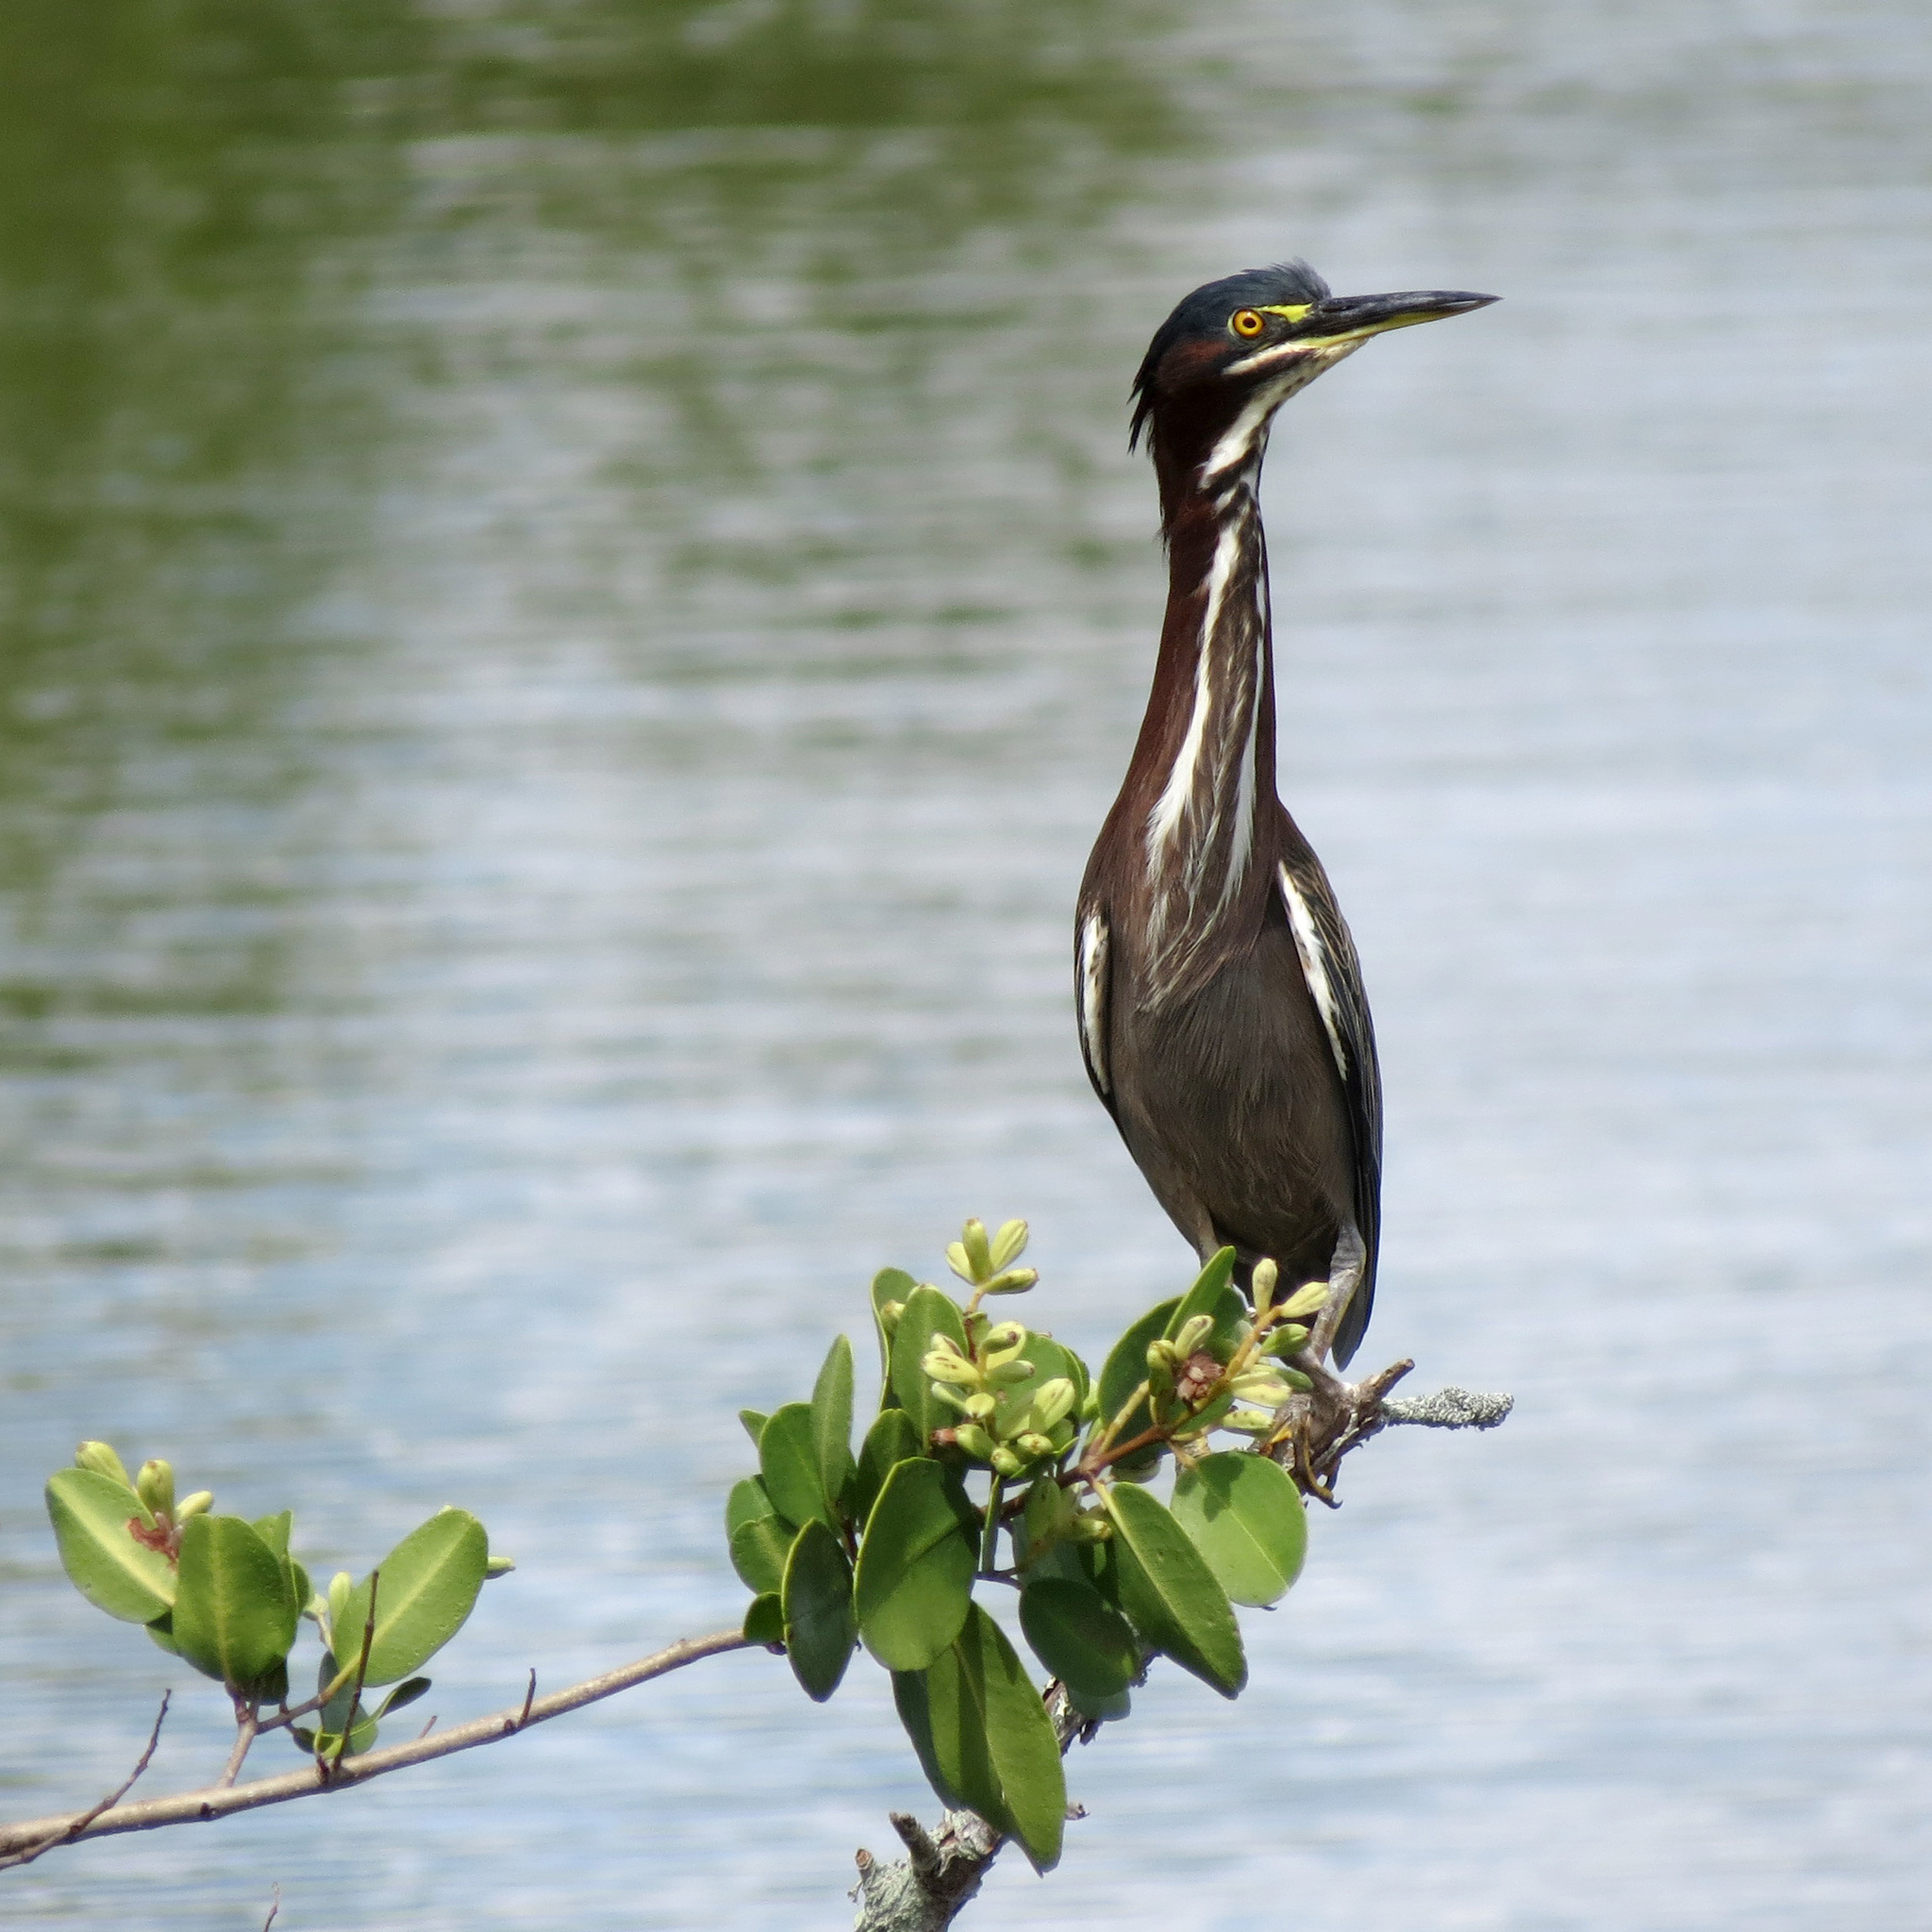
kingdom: Animalia
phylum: Chordata
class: Aves
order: Pelecaniformes
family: Ardeidae
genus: Butorides
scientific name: Butorides virescens
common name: Green heron
